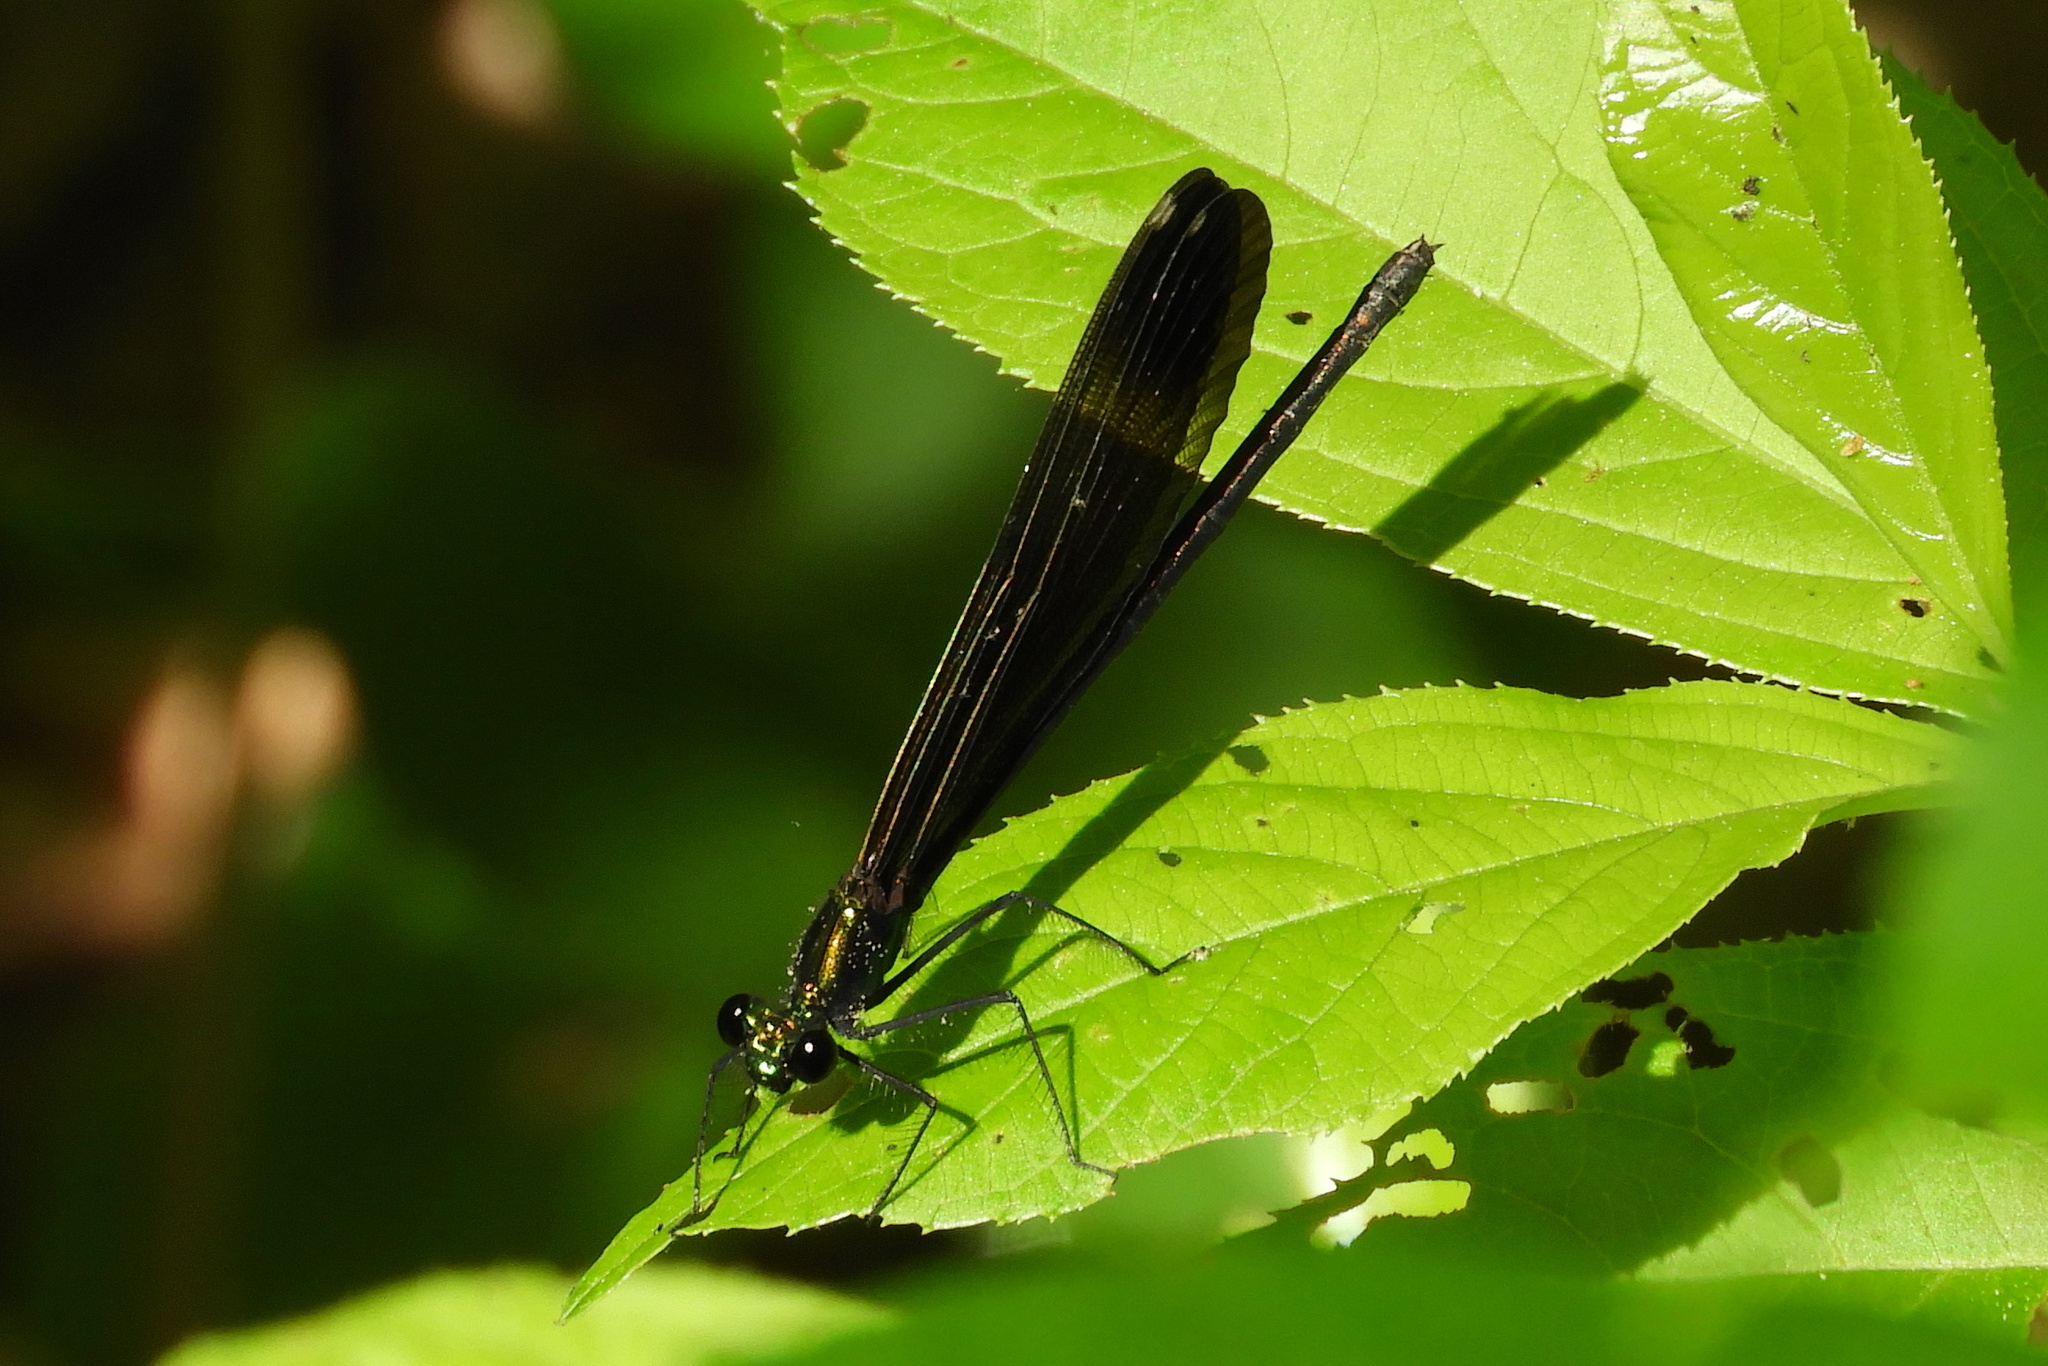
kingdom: Animalia
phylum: Arthropoda
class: Insecta
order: Odonata
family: Calopterygidae
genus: Calopteryx
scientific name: Calopteryx maculata
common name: Ebony jewelwing
